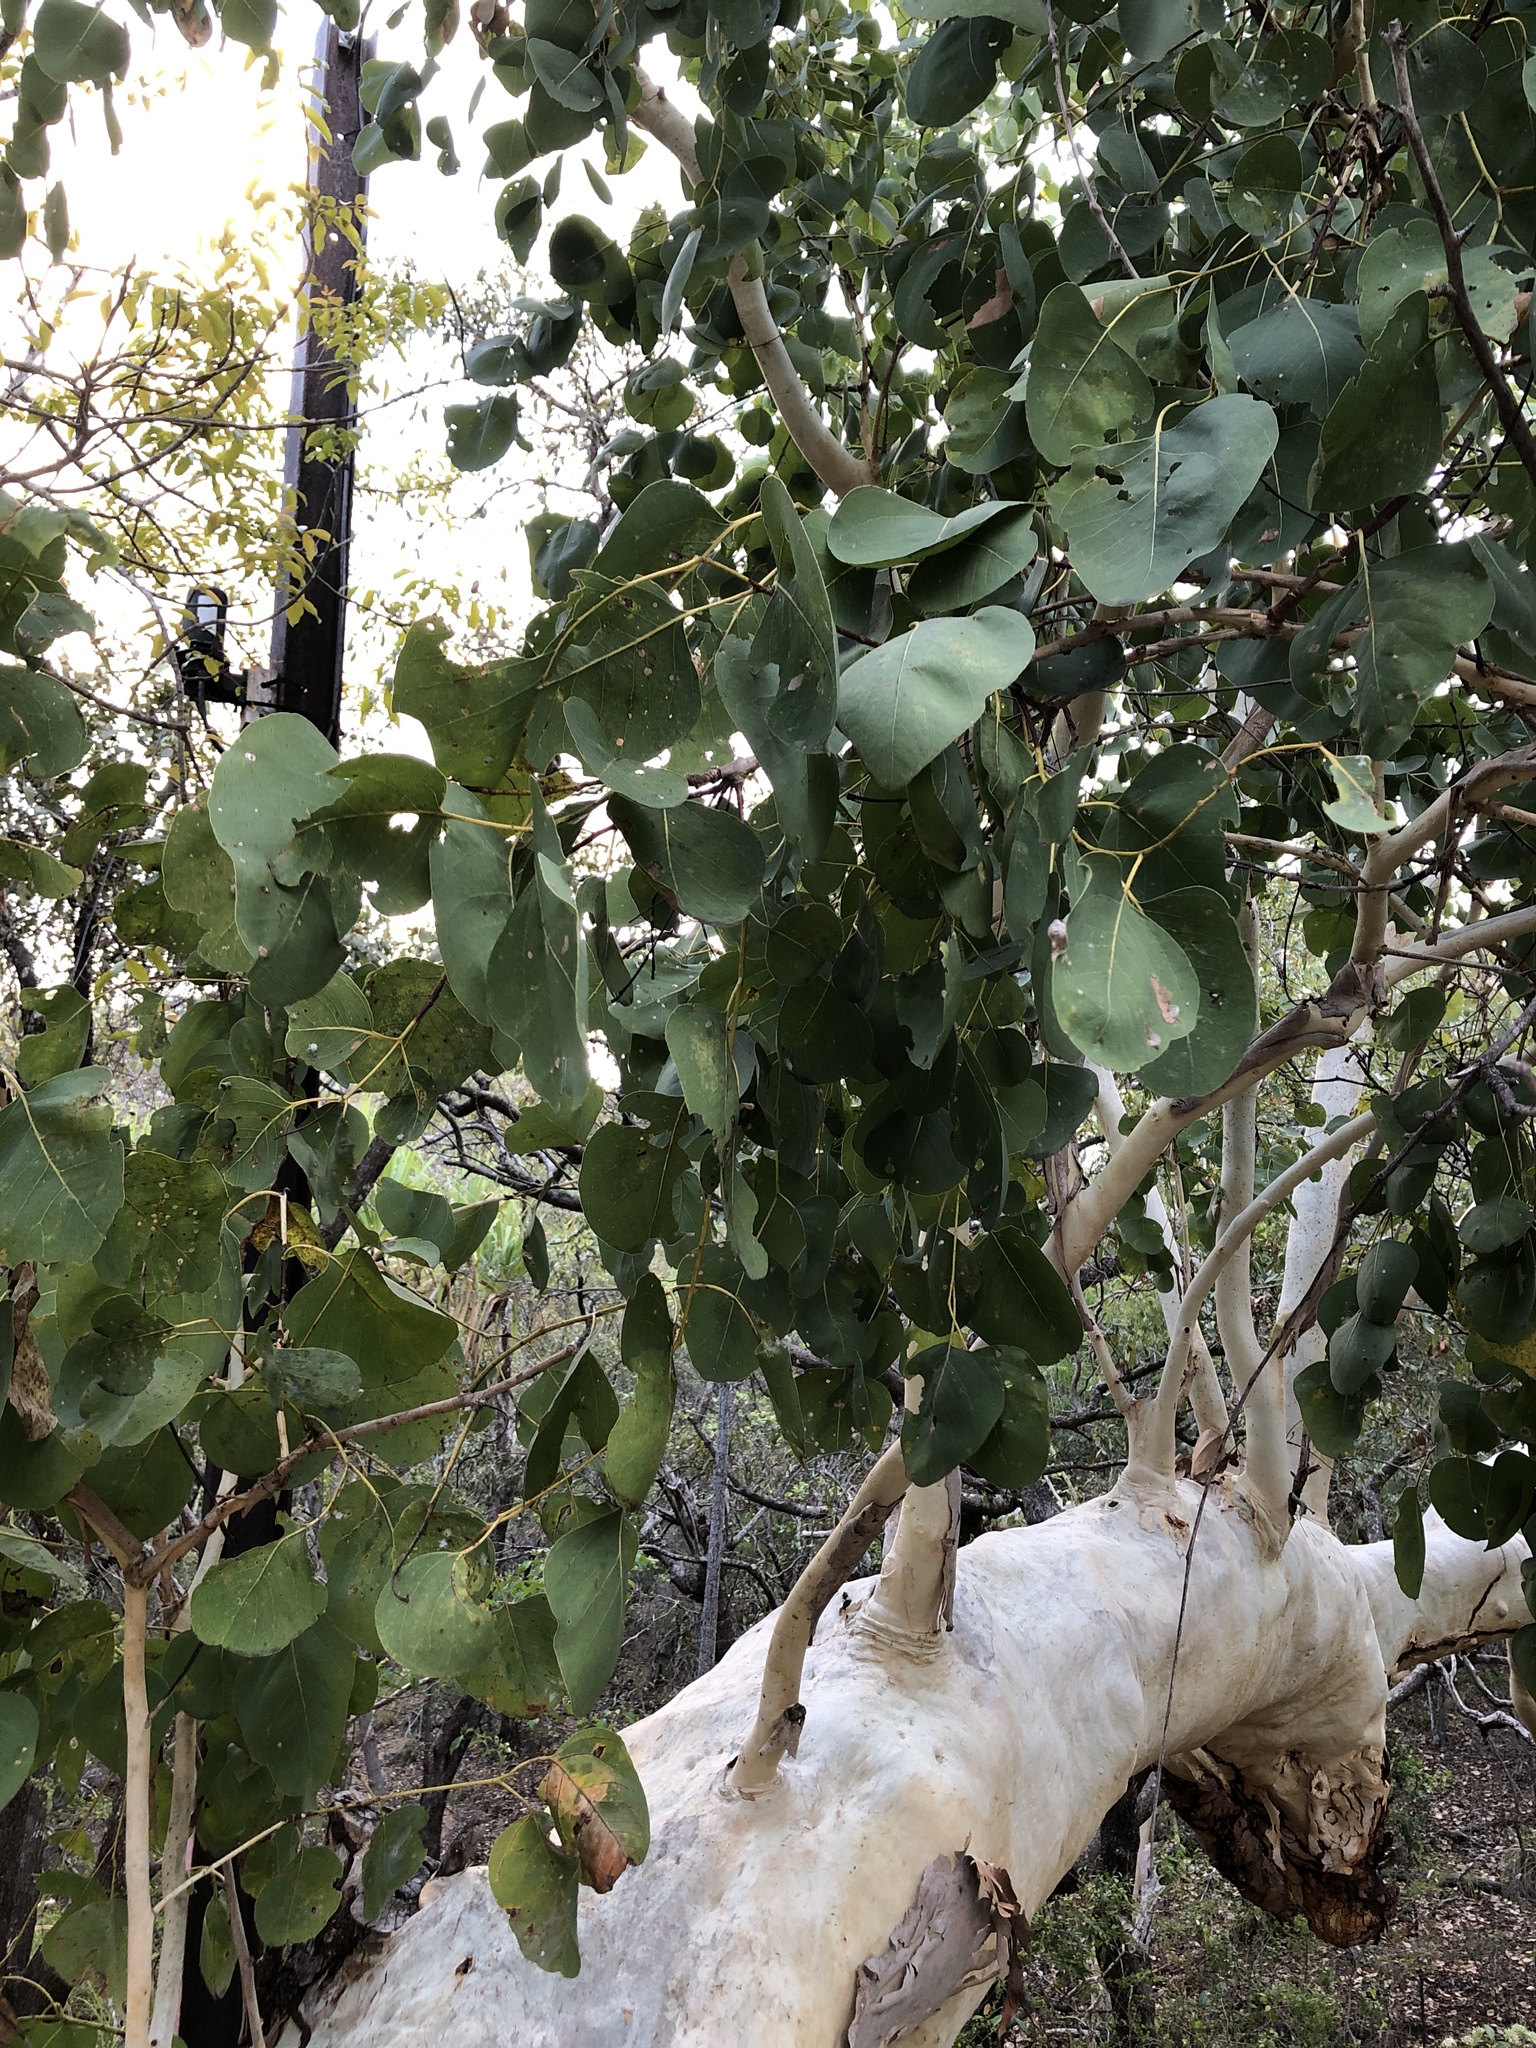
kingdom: Plantae
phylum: Tracheophyta
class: Magnoliopsida
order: Myrtales
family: Myrtaceae
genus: Eucalyptus
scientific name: Eucalyptus platyphylla
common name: Poplar-gum
